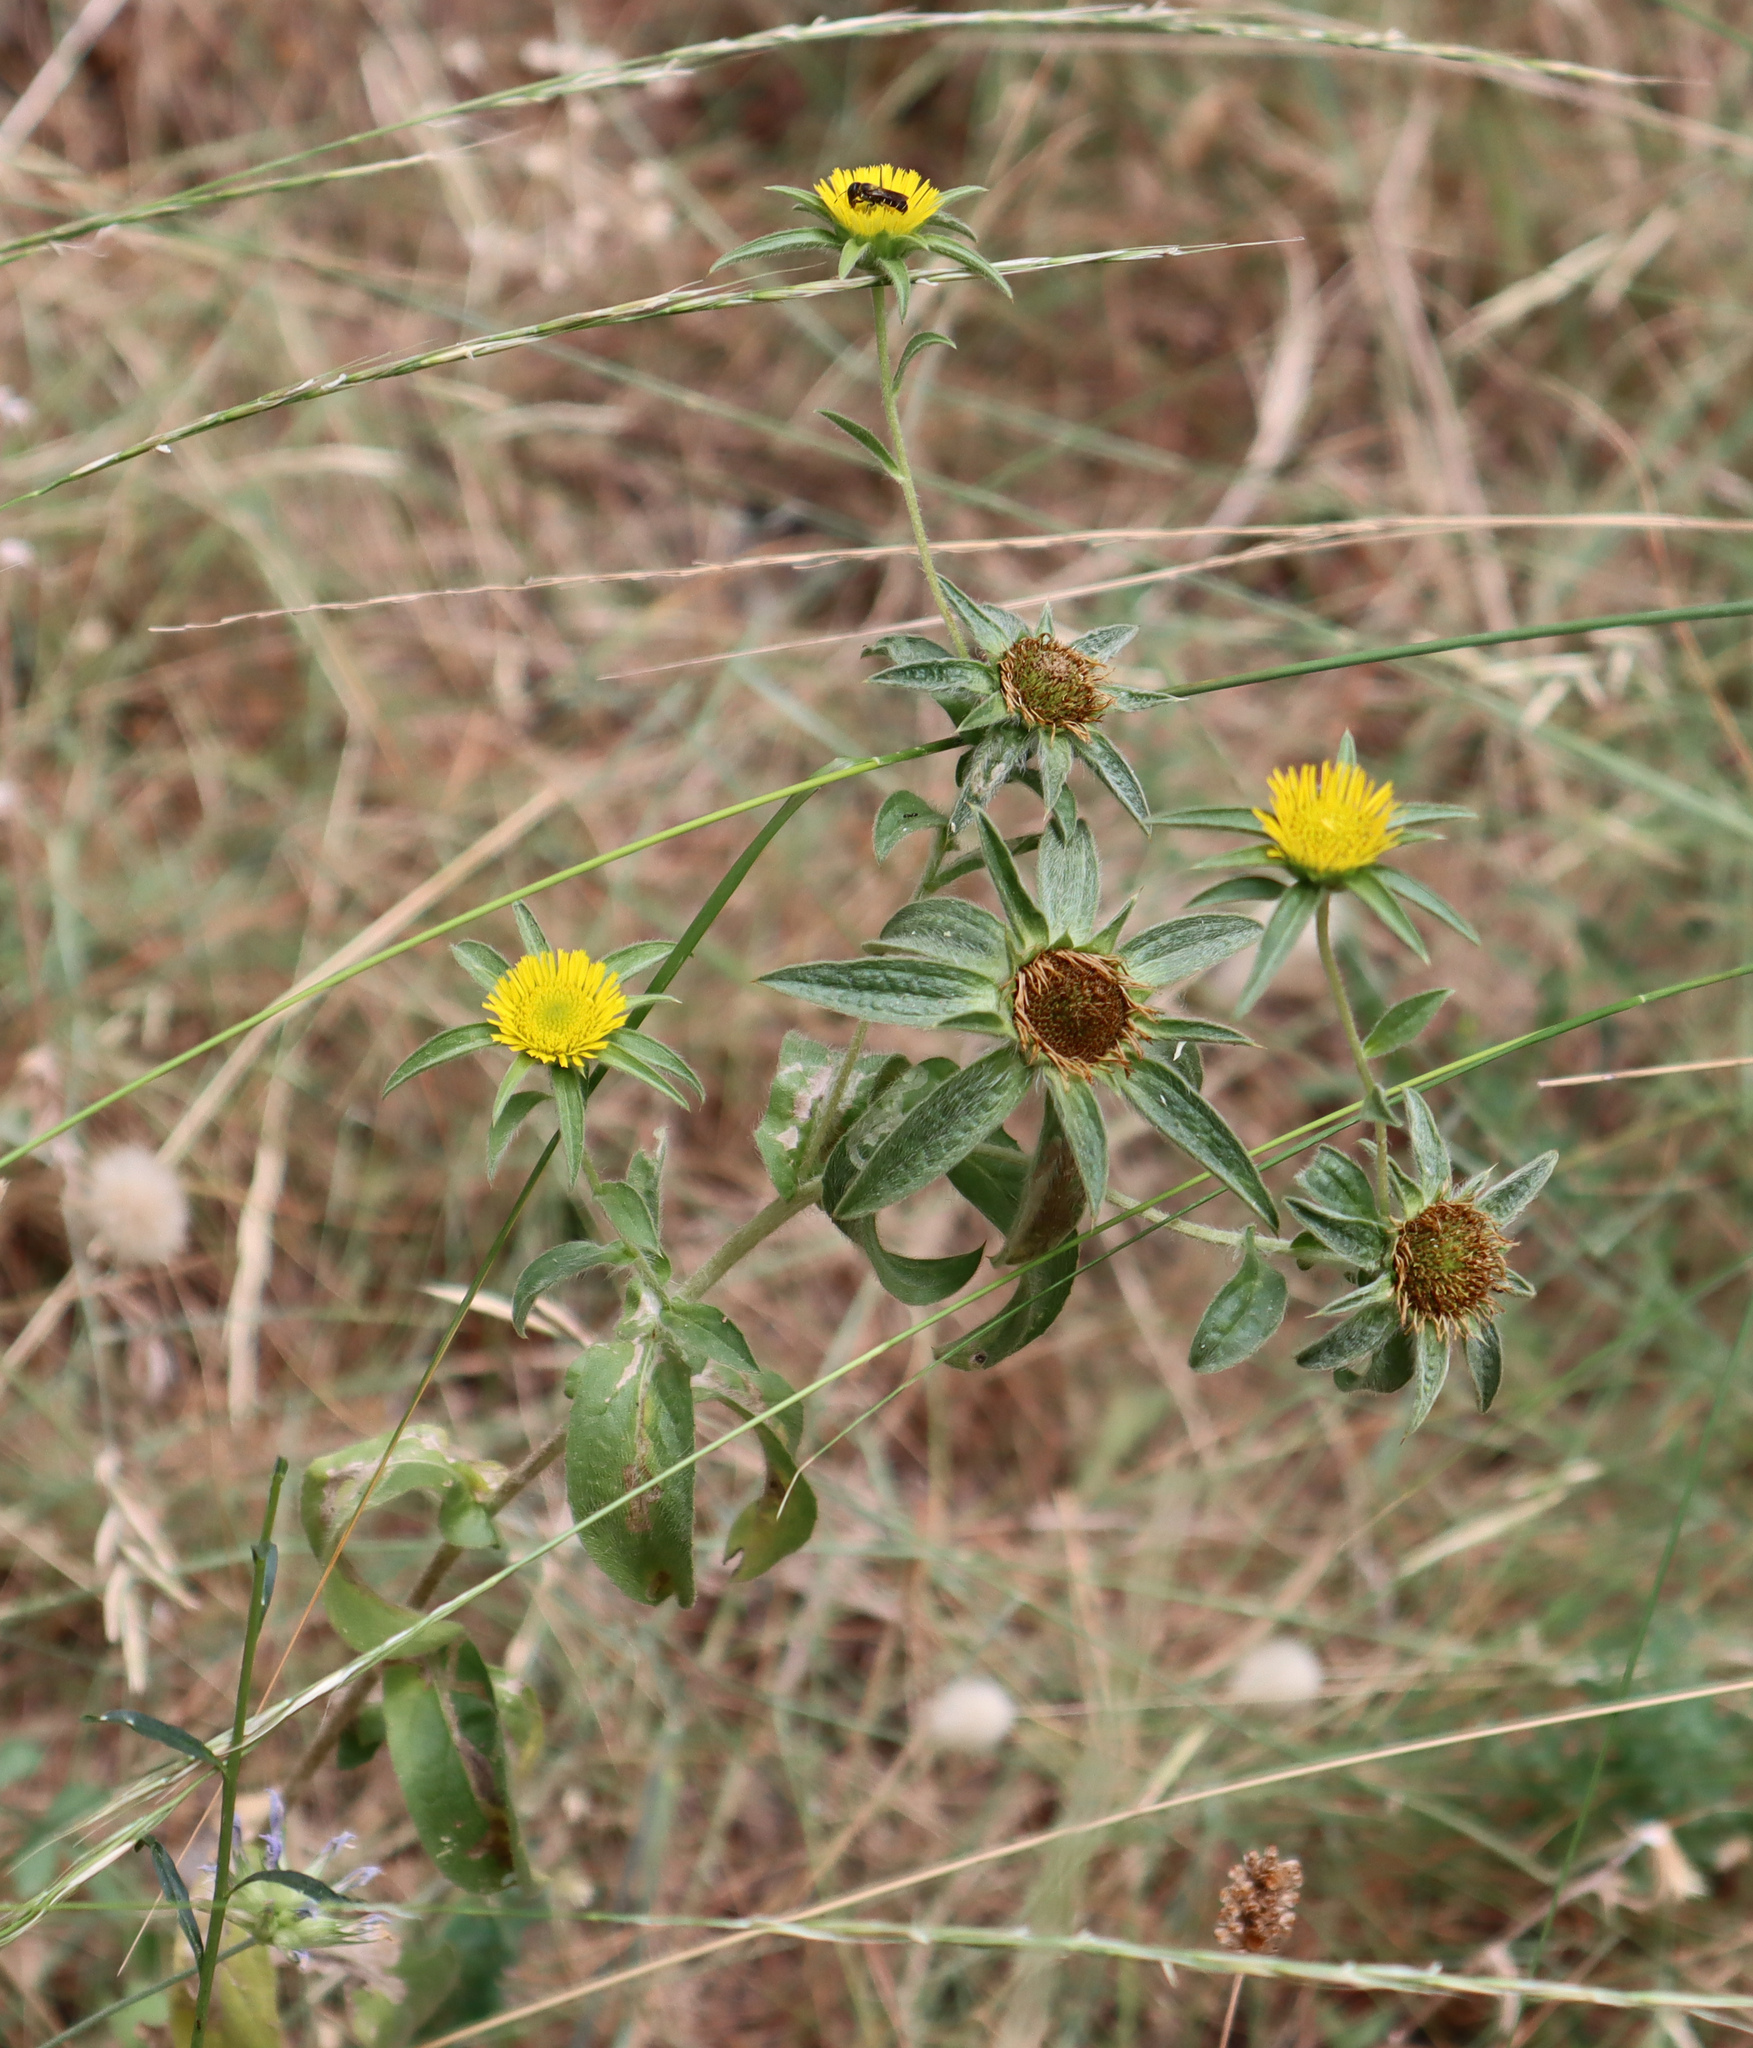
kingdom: Plantae
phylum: Tracheophyta
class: Magnoliopsida
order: Asterales
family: Asteraceae
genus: Pallenis
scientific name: Pallenis spinosa
